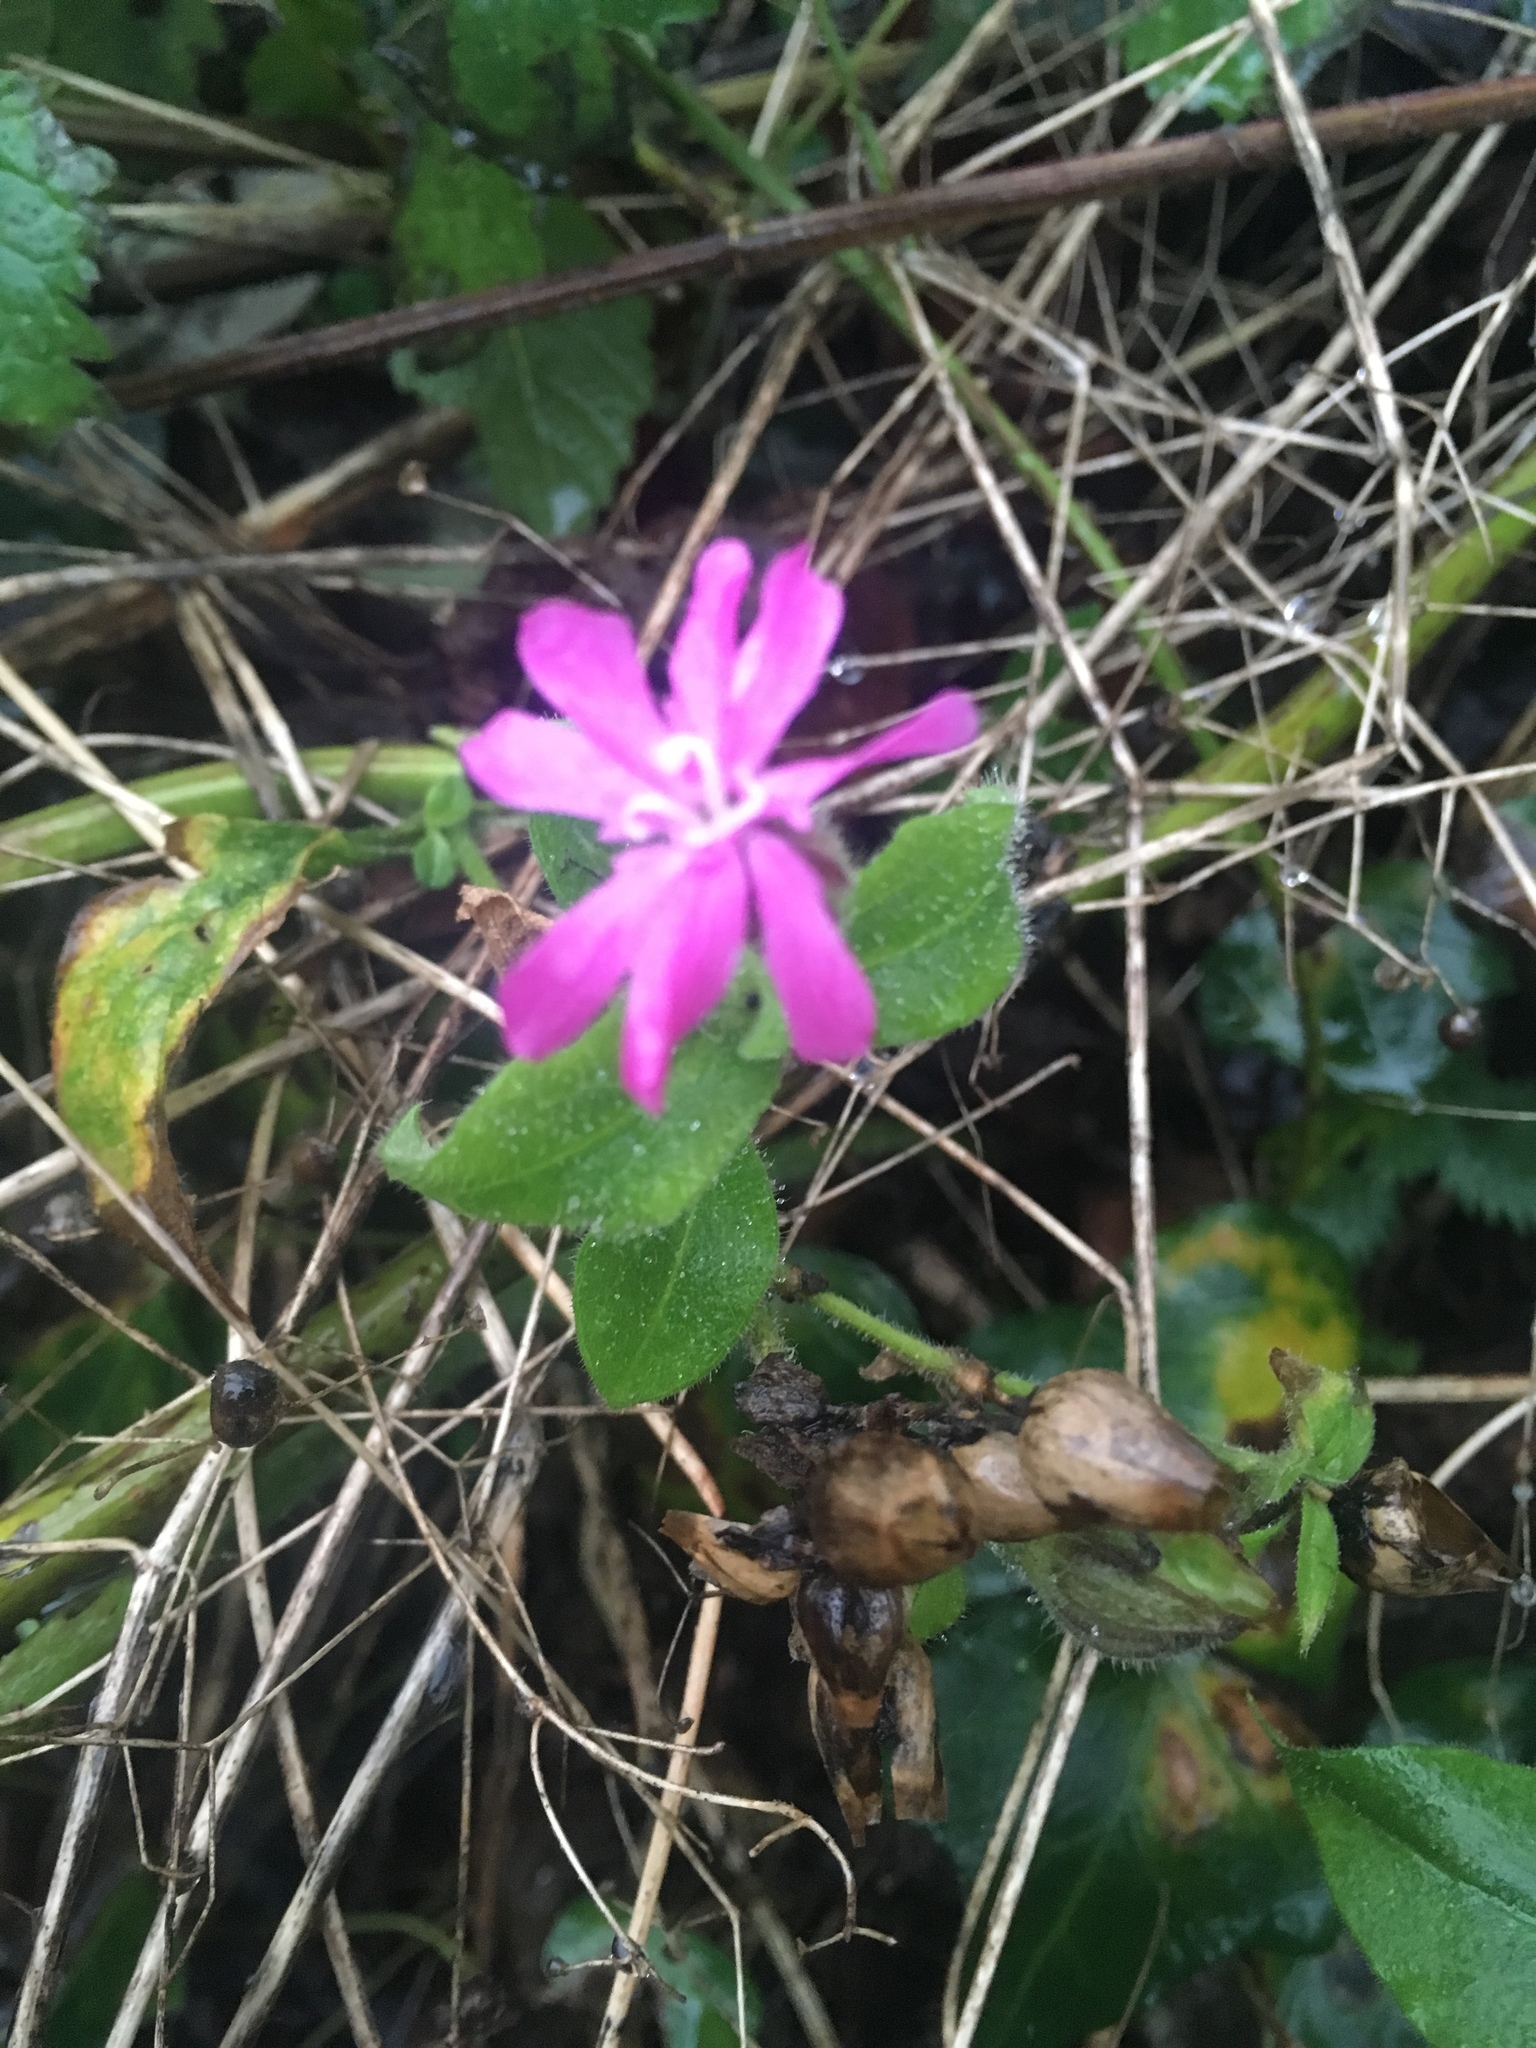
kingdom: Plantae
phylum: Tracheophyta
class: Magnoliopsida
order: Caryophyllales
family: Caryophyllaceae
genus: Silene
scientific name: Silene dioica
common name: Red campion
